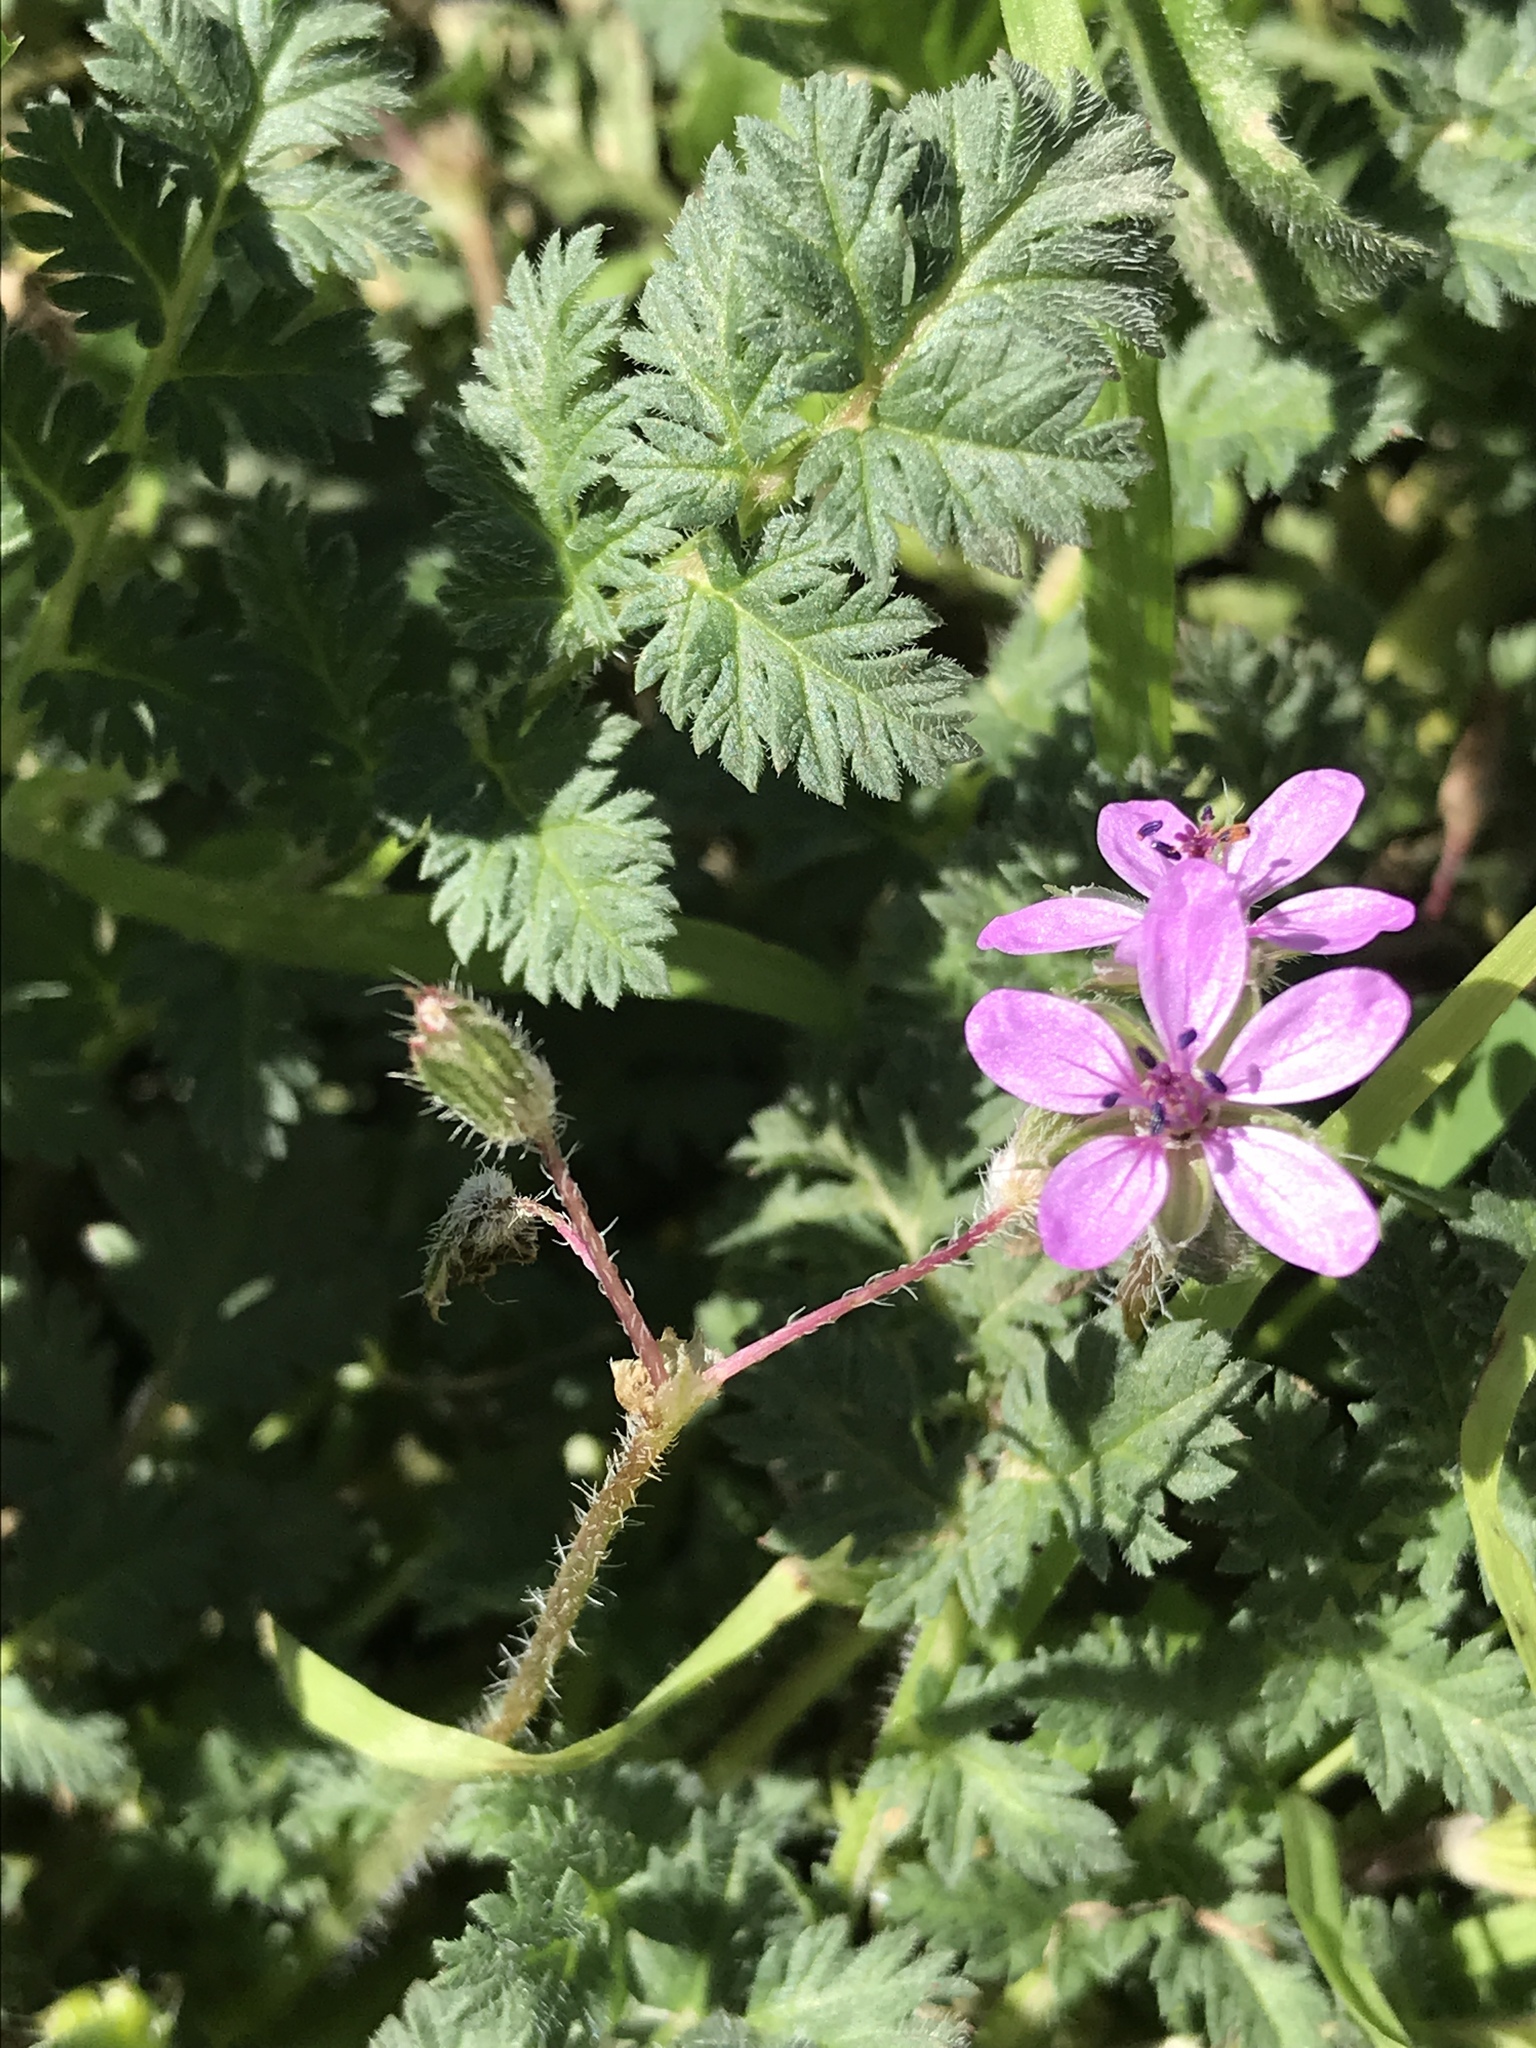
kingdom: Plantae
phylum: Tracheophyta
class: Magnoliopsida
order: Geraniales
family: Geraniaceae
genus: Erodium
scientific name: Erodium cicutarium
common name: Common stork's-bill
